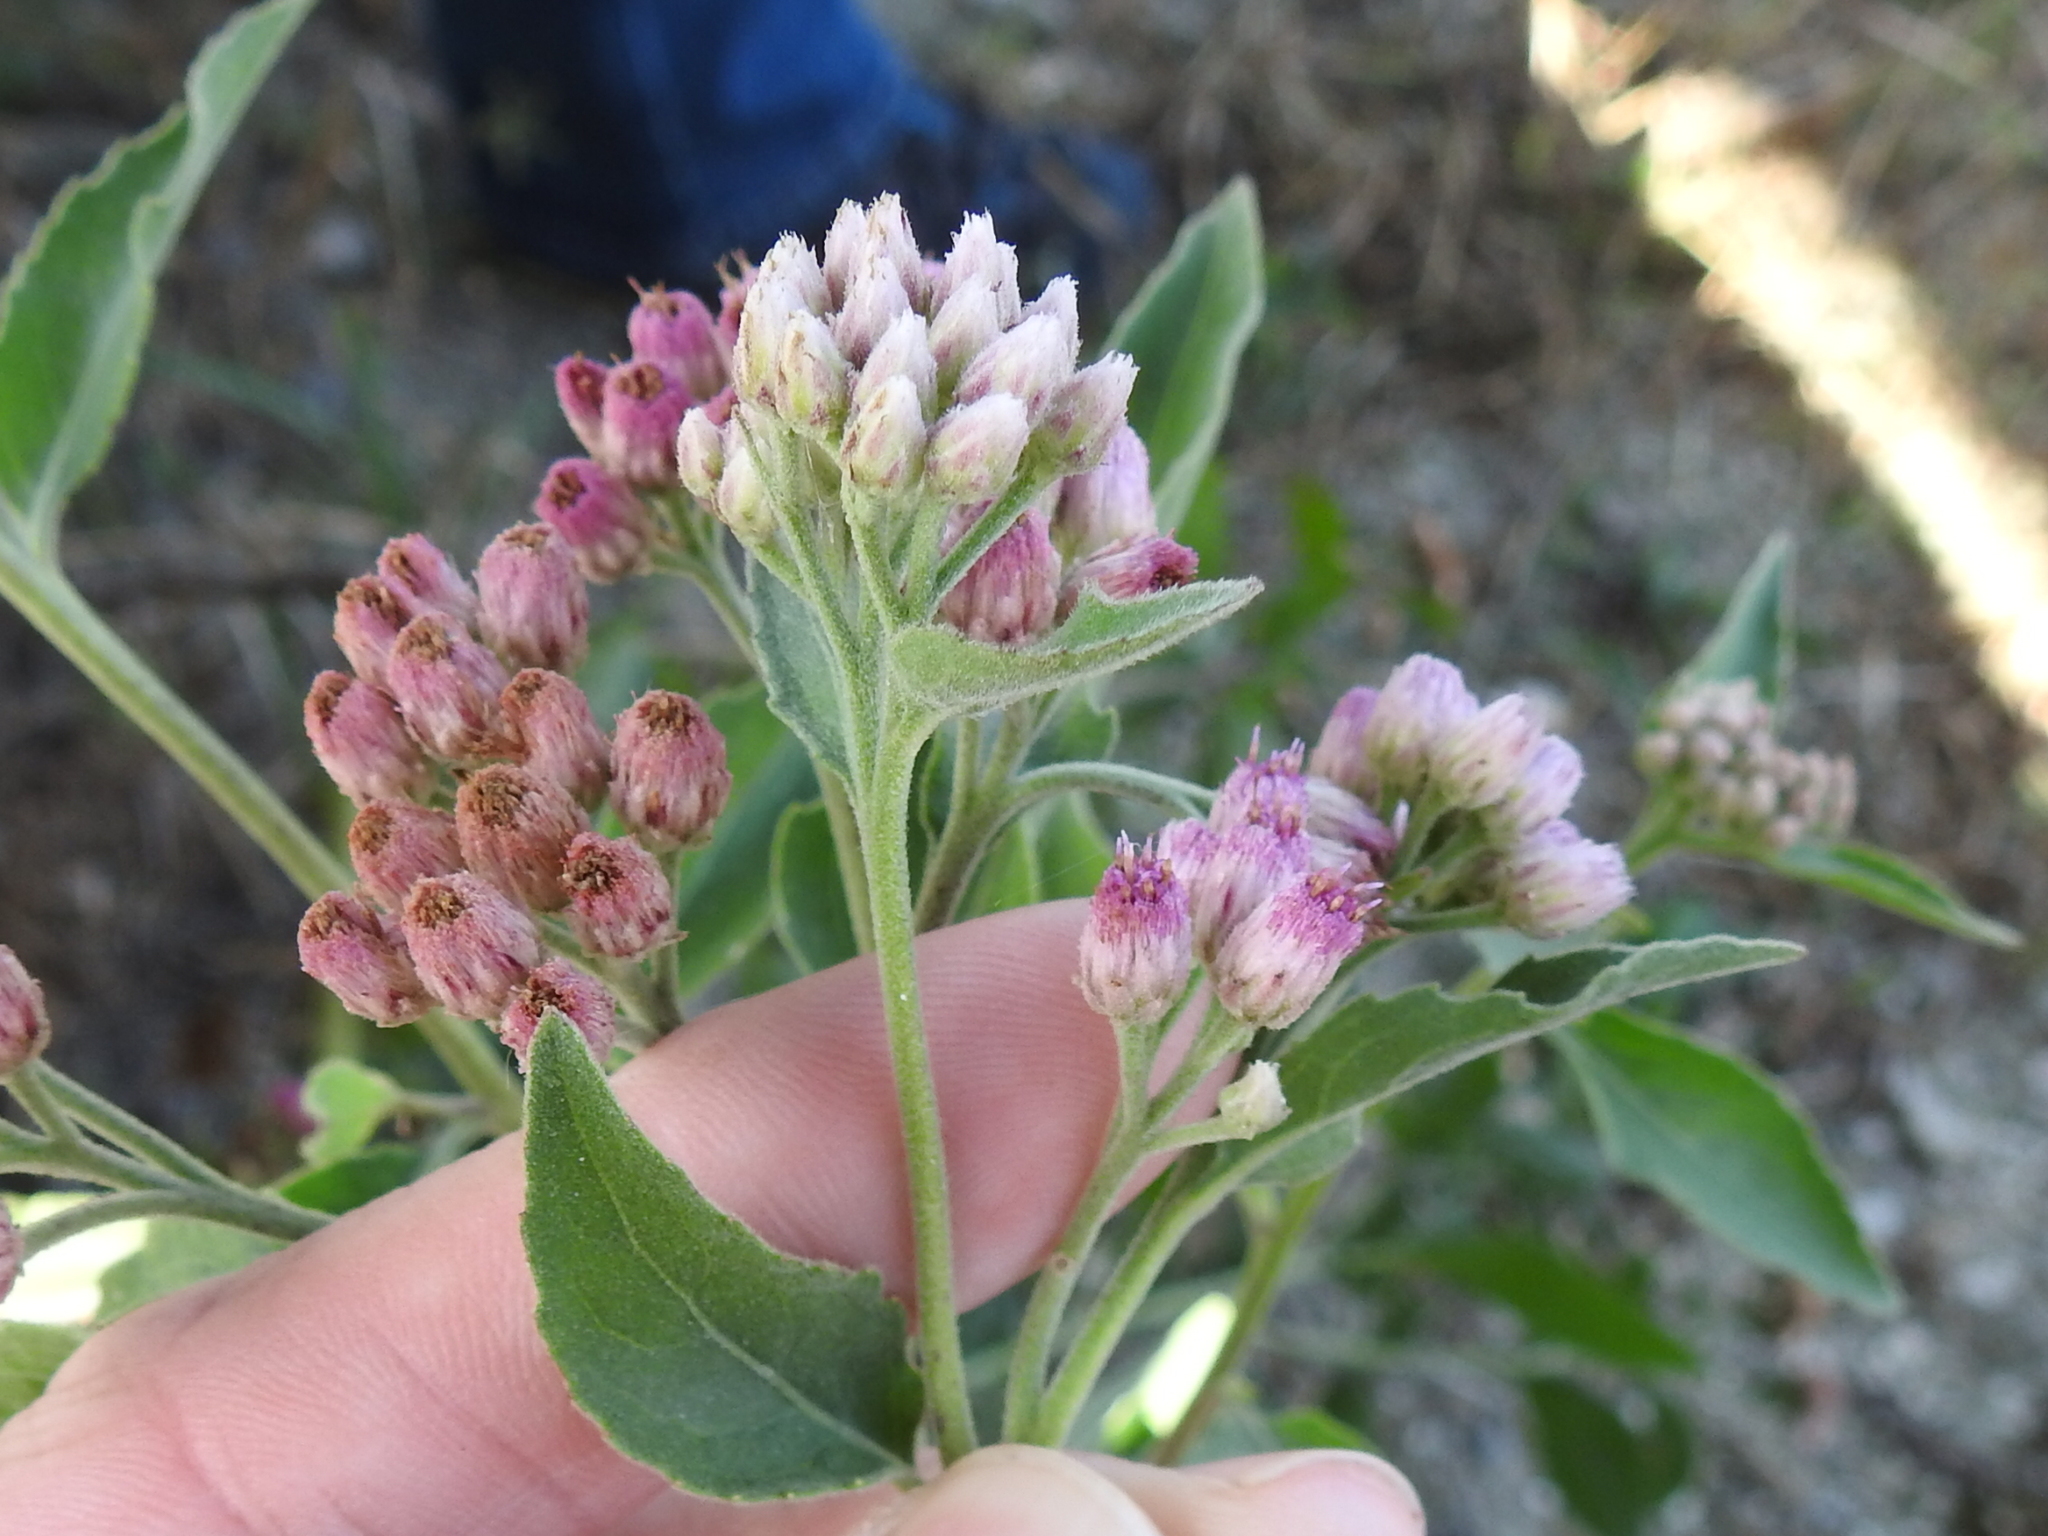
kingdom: Plantae
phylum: Tracheophyta
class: Magnoliopsida
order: Asterales
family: Asteraceae
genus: Pluchea
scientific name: Pluchea odorata
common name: Saltmarsh fleabane
